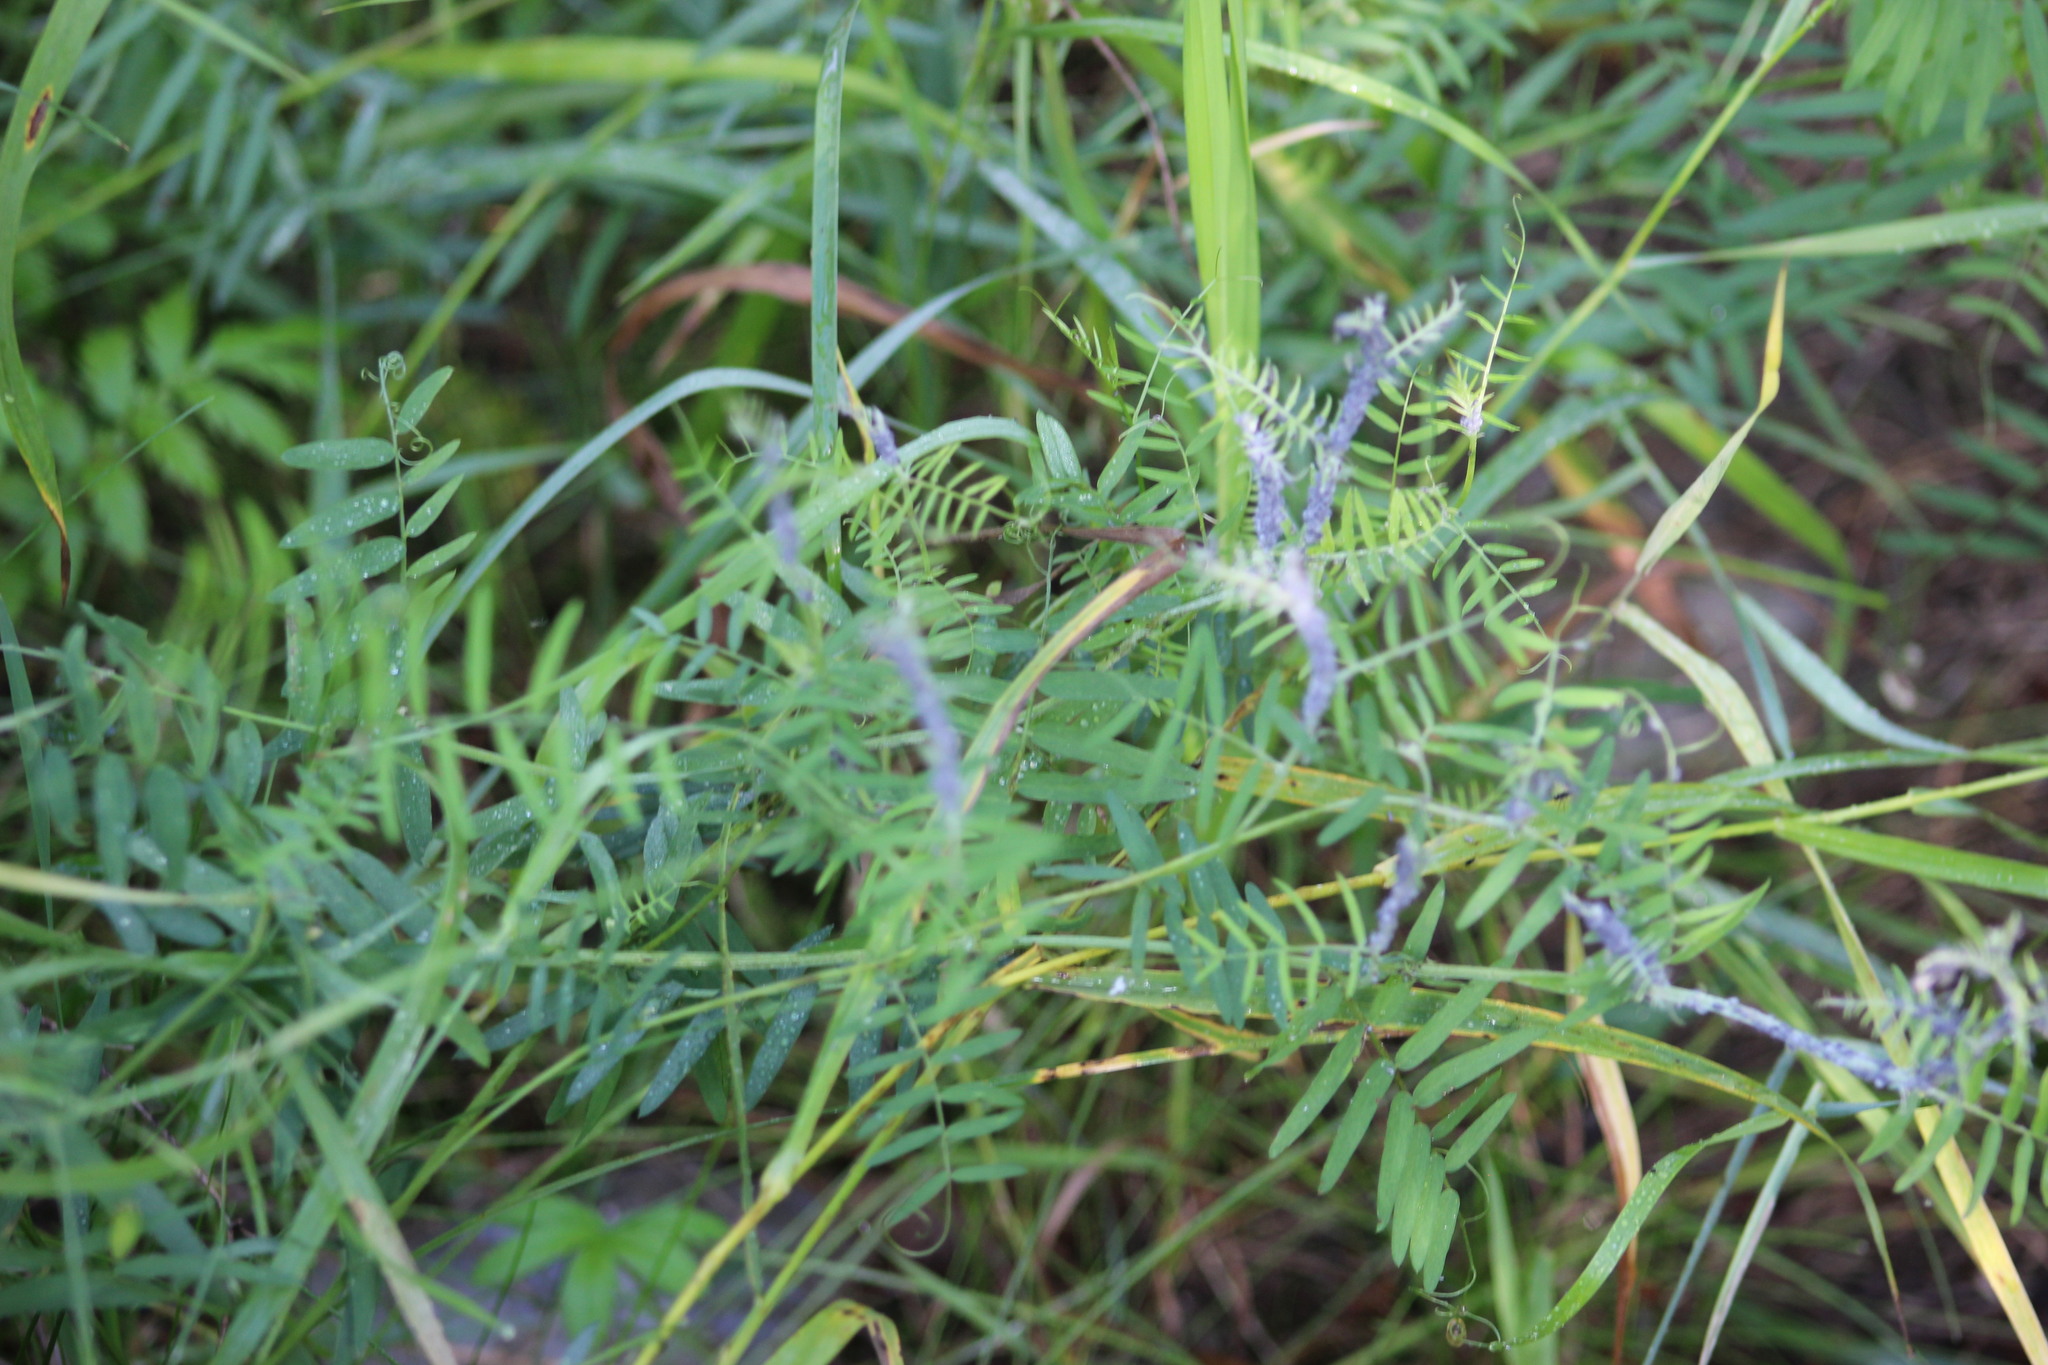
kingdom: Plantae
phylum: Tracheophyta
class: Magnoliopsida
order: Fabales
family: Fabaceae
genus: Vicia
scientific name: Vicia cracca
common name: Bird vetch
